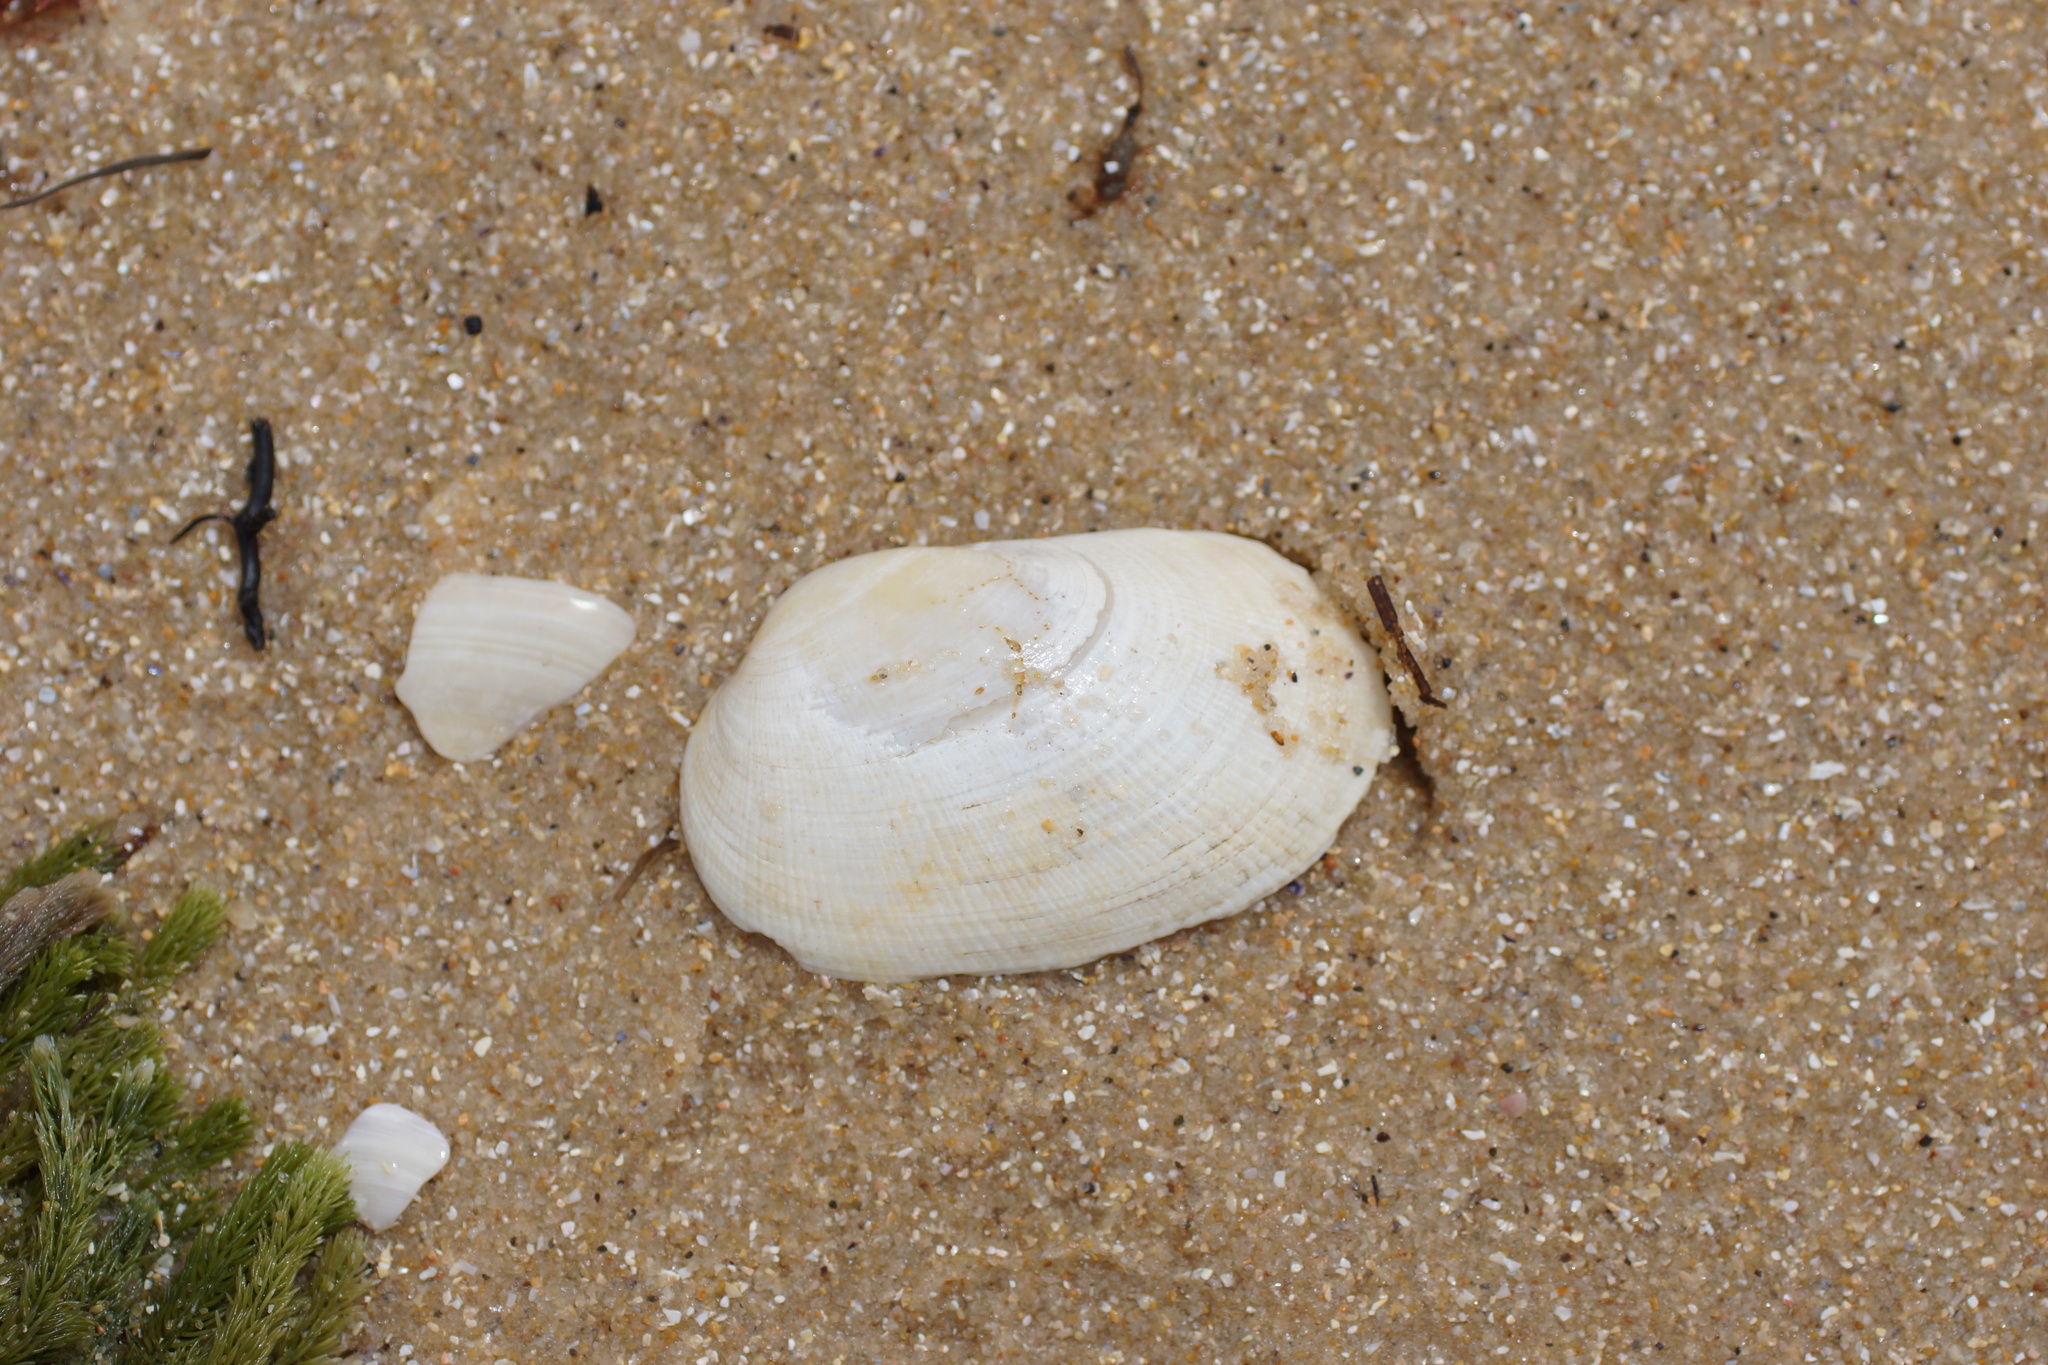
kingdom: Animalia
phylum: Mollusca
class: Bivalvia
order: Venerida
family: Veneridae
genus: Venerupis
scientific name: Venerupis galactites
